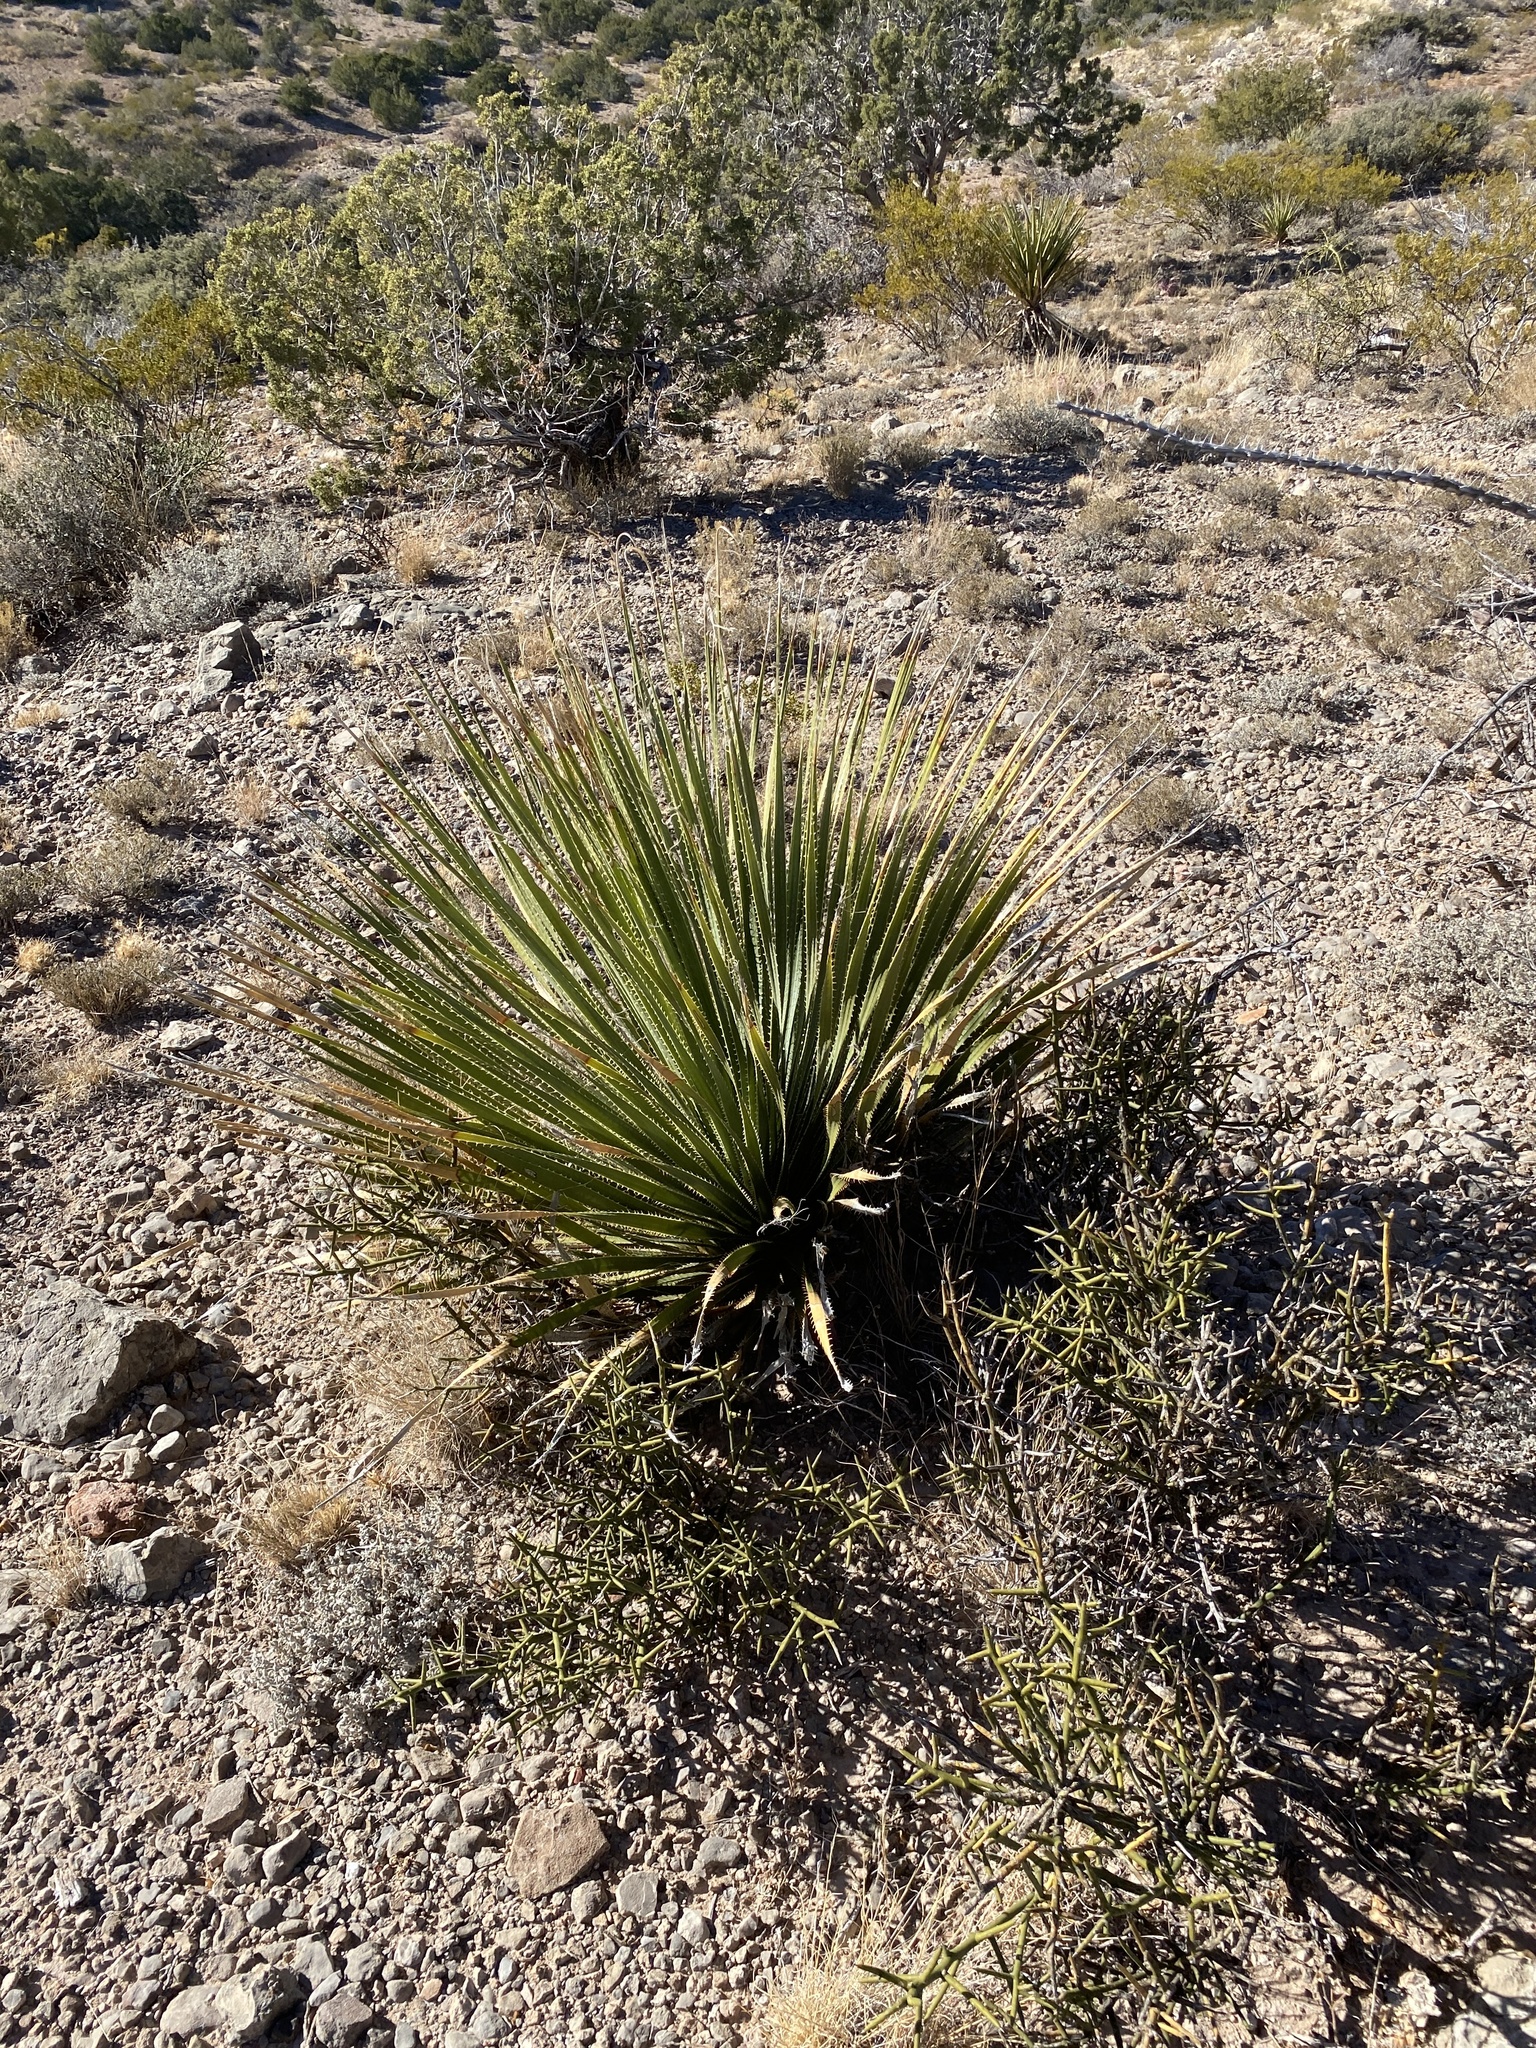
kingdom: Plantae
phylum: Tracheophyta
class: Liliopsida
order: Asparagales
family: Asparagaceae
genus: Dasylirion
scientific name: Dasylirion wheeleri
